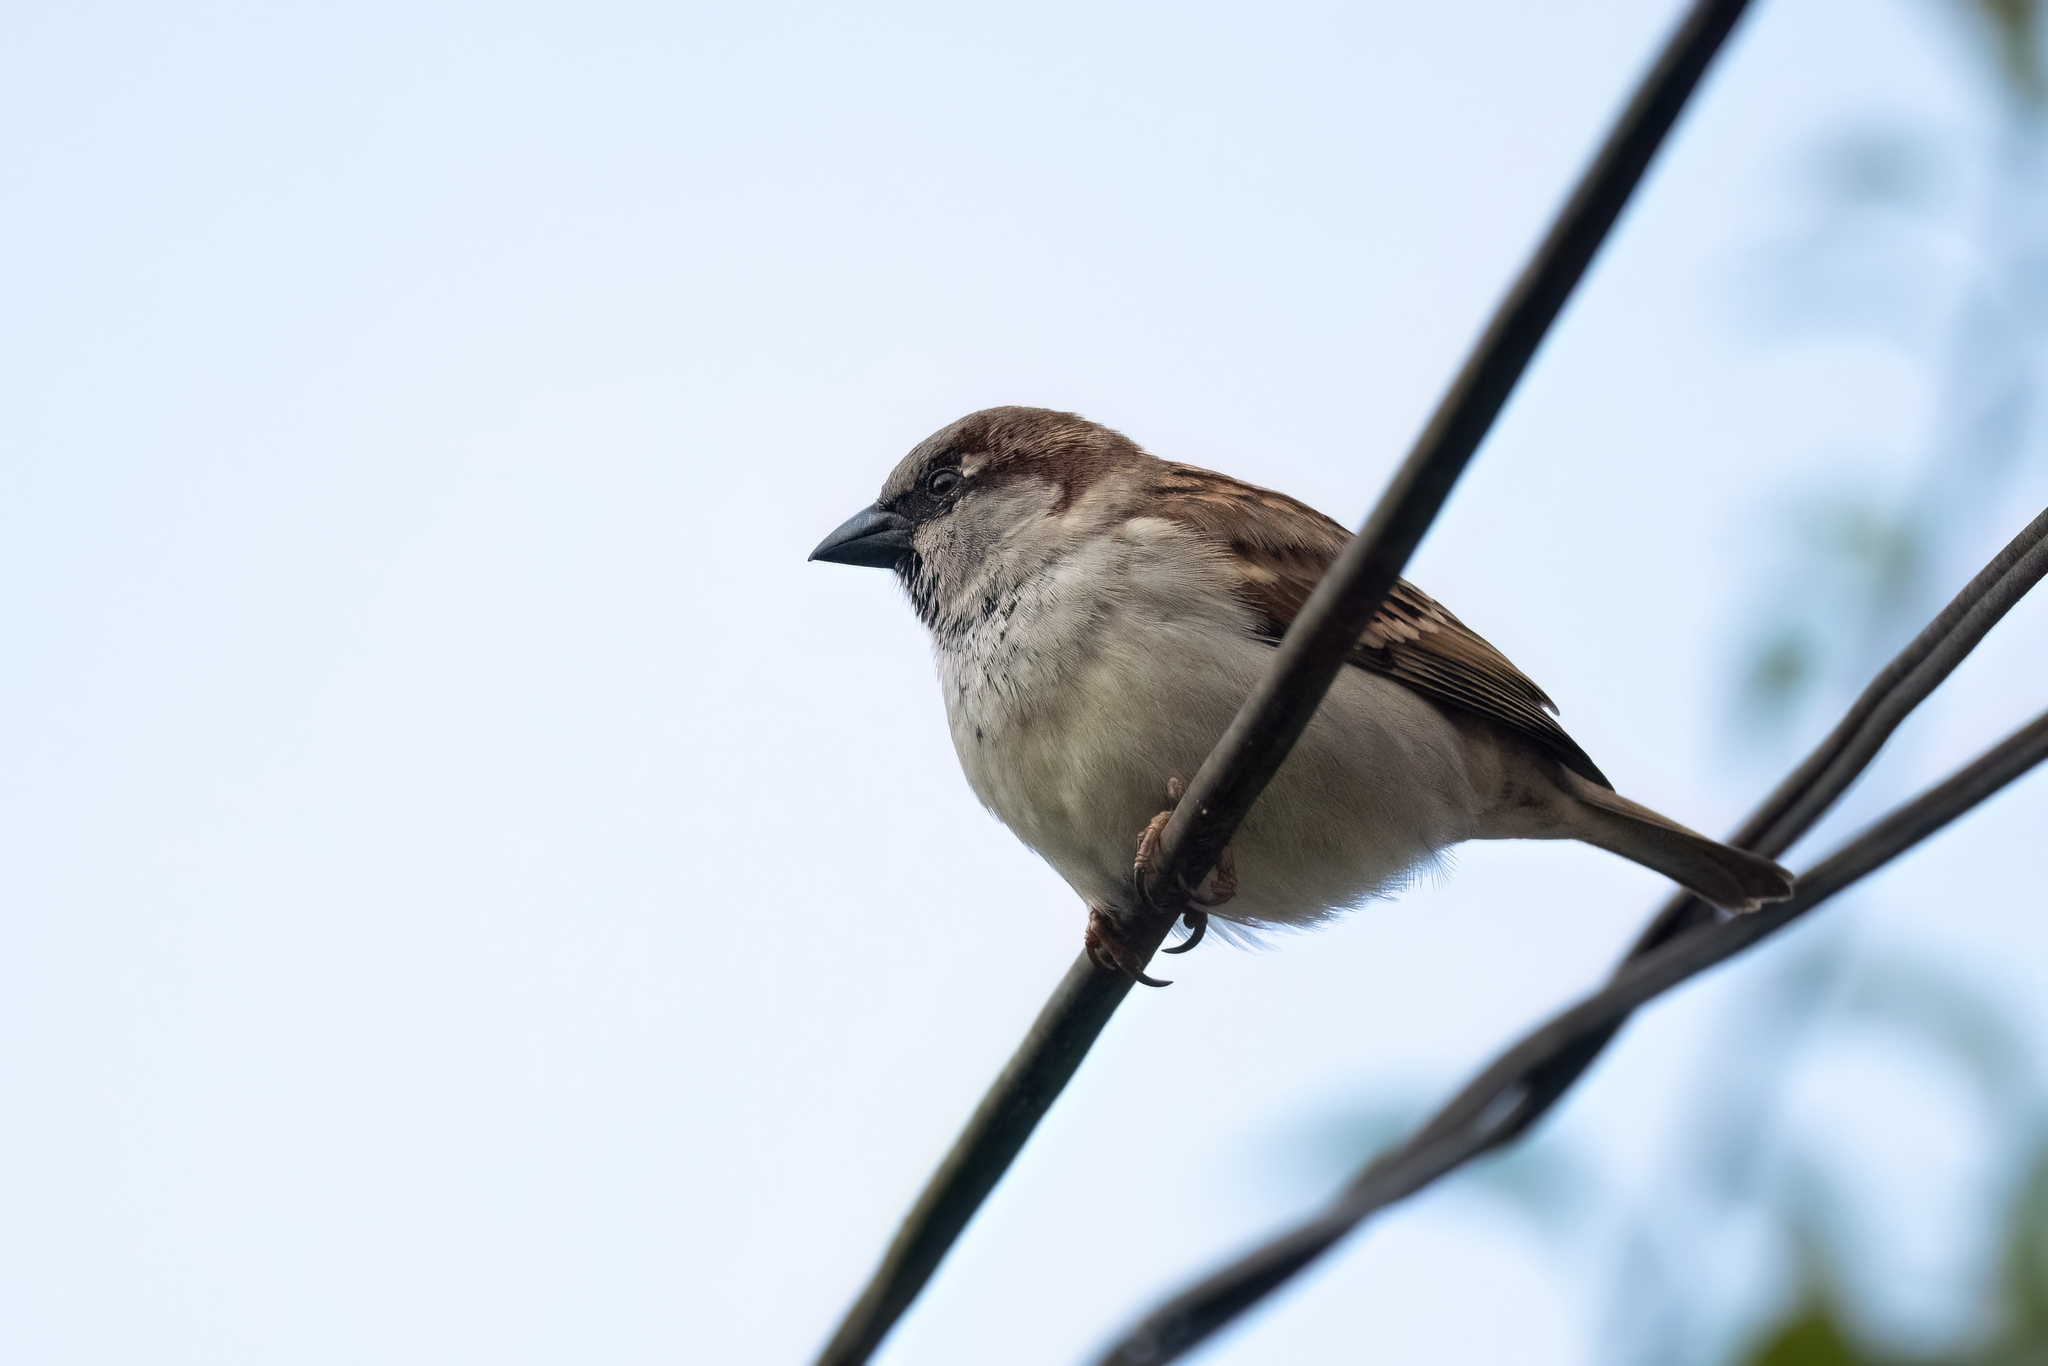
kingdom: Animalia
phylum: Chordata
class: Aves
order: Passeriformes
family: Passeridae
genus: Passer
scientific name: Passer domesticus
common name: House sparrow
